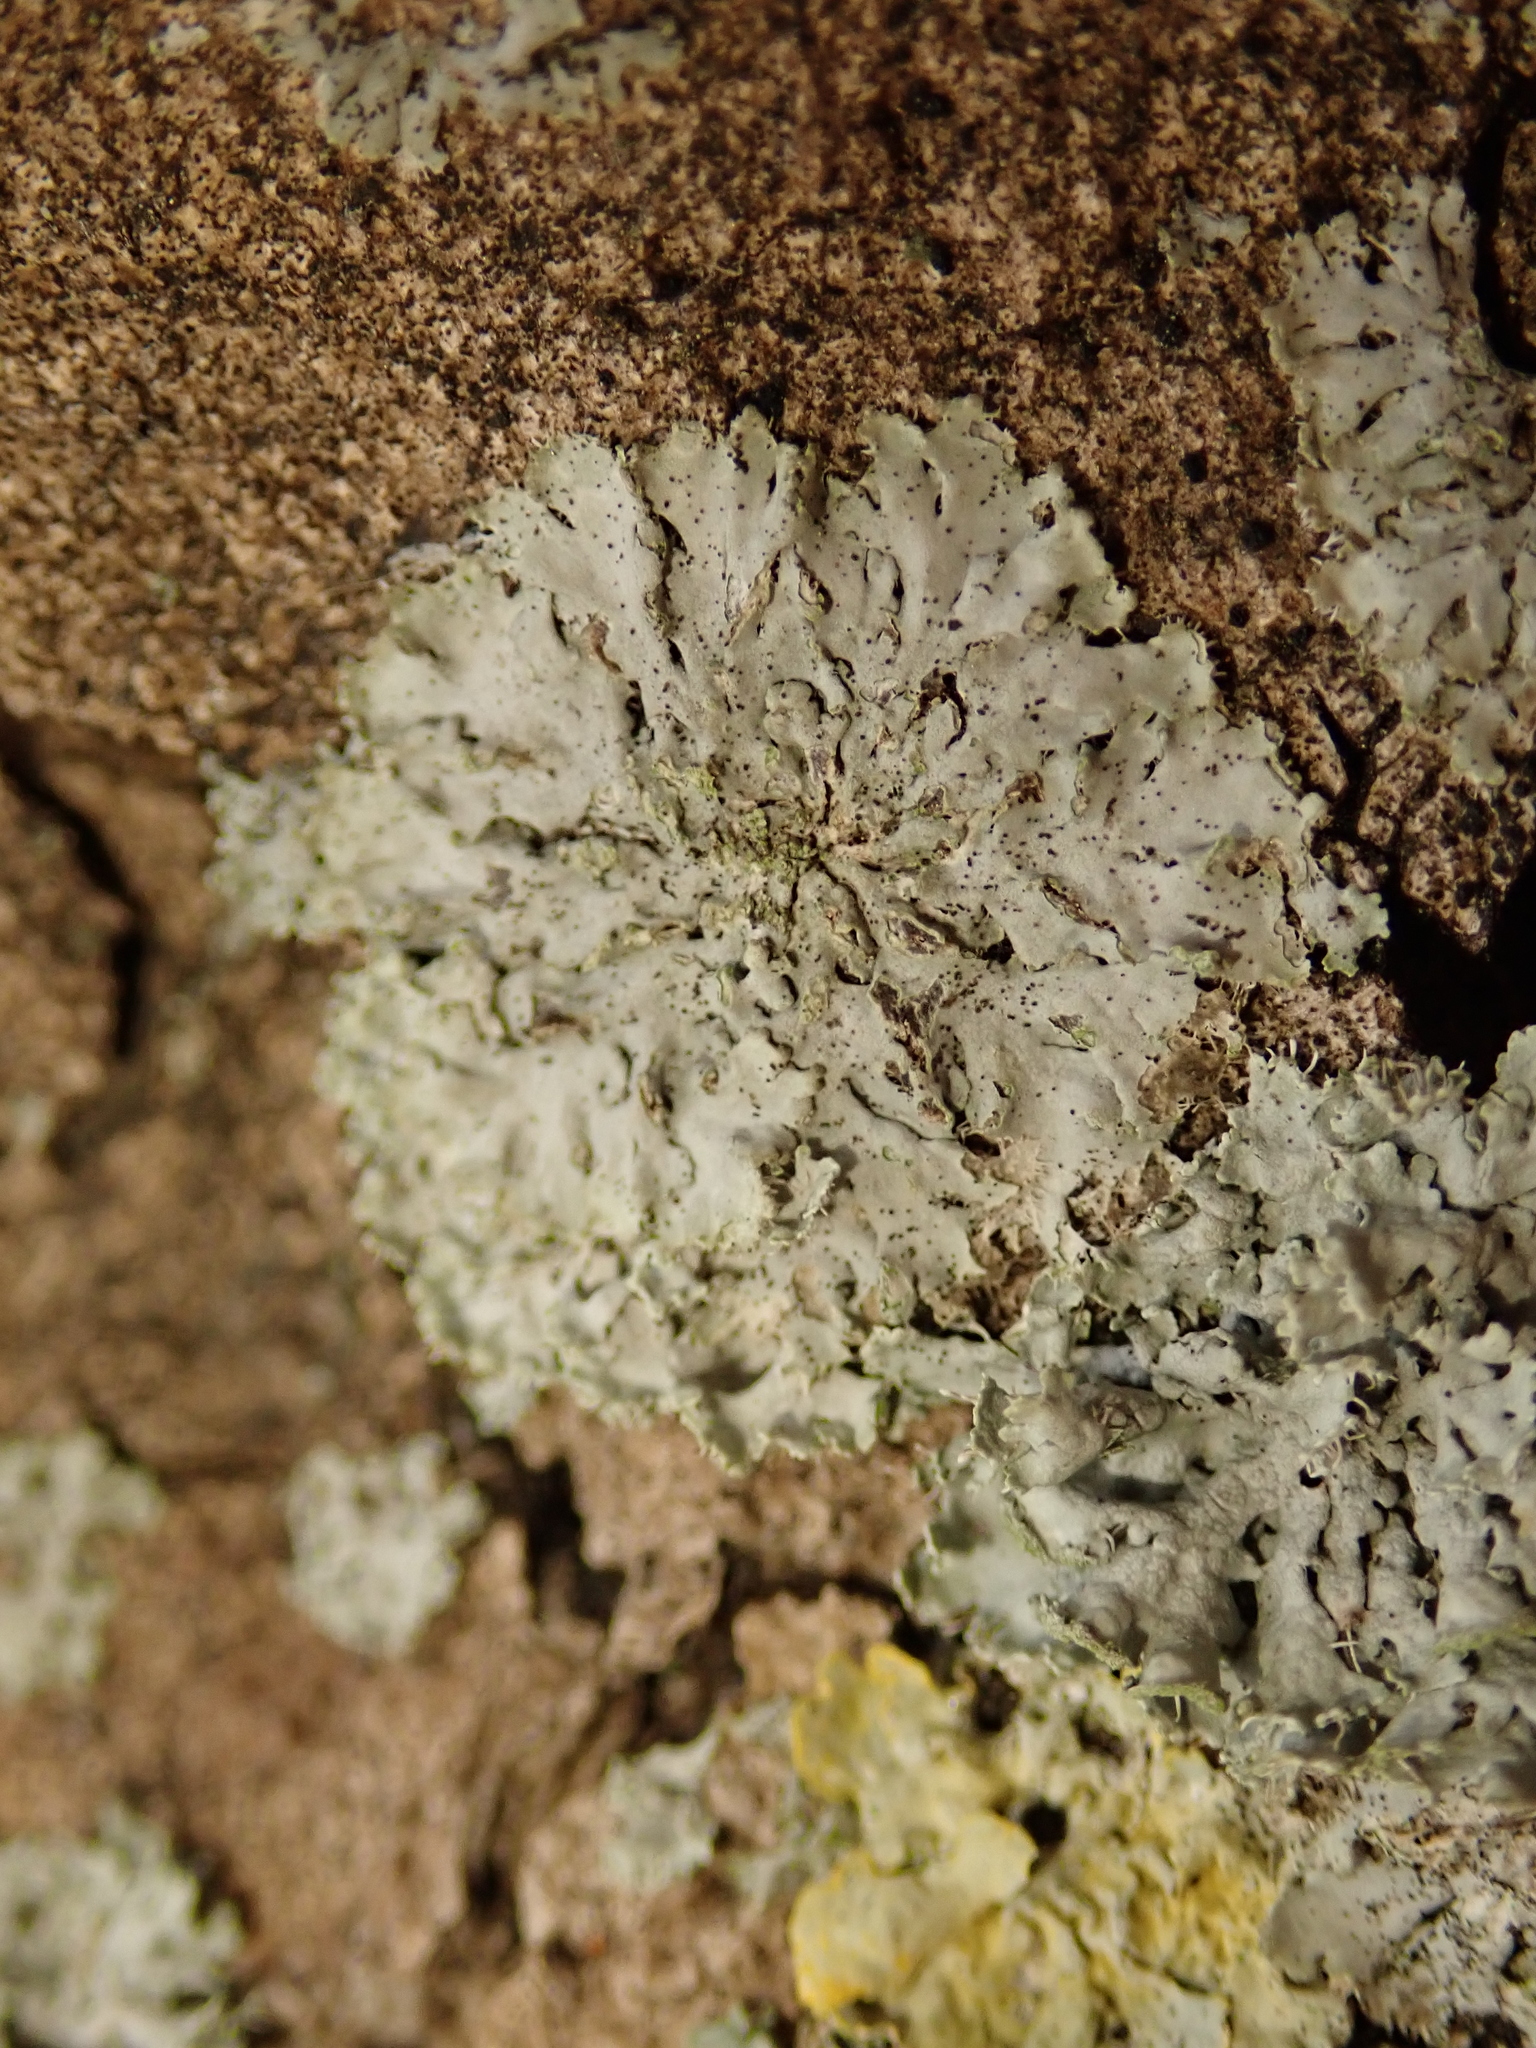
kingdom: Fungi
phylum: Ascomycota
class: Lecanoromycetes
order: Caliciales
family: Physciaceae
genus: Phaeophyscia
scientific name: Phaeophyscia orbicularis
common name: Mealy shadow lichen
